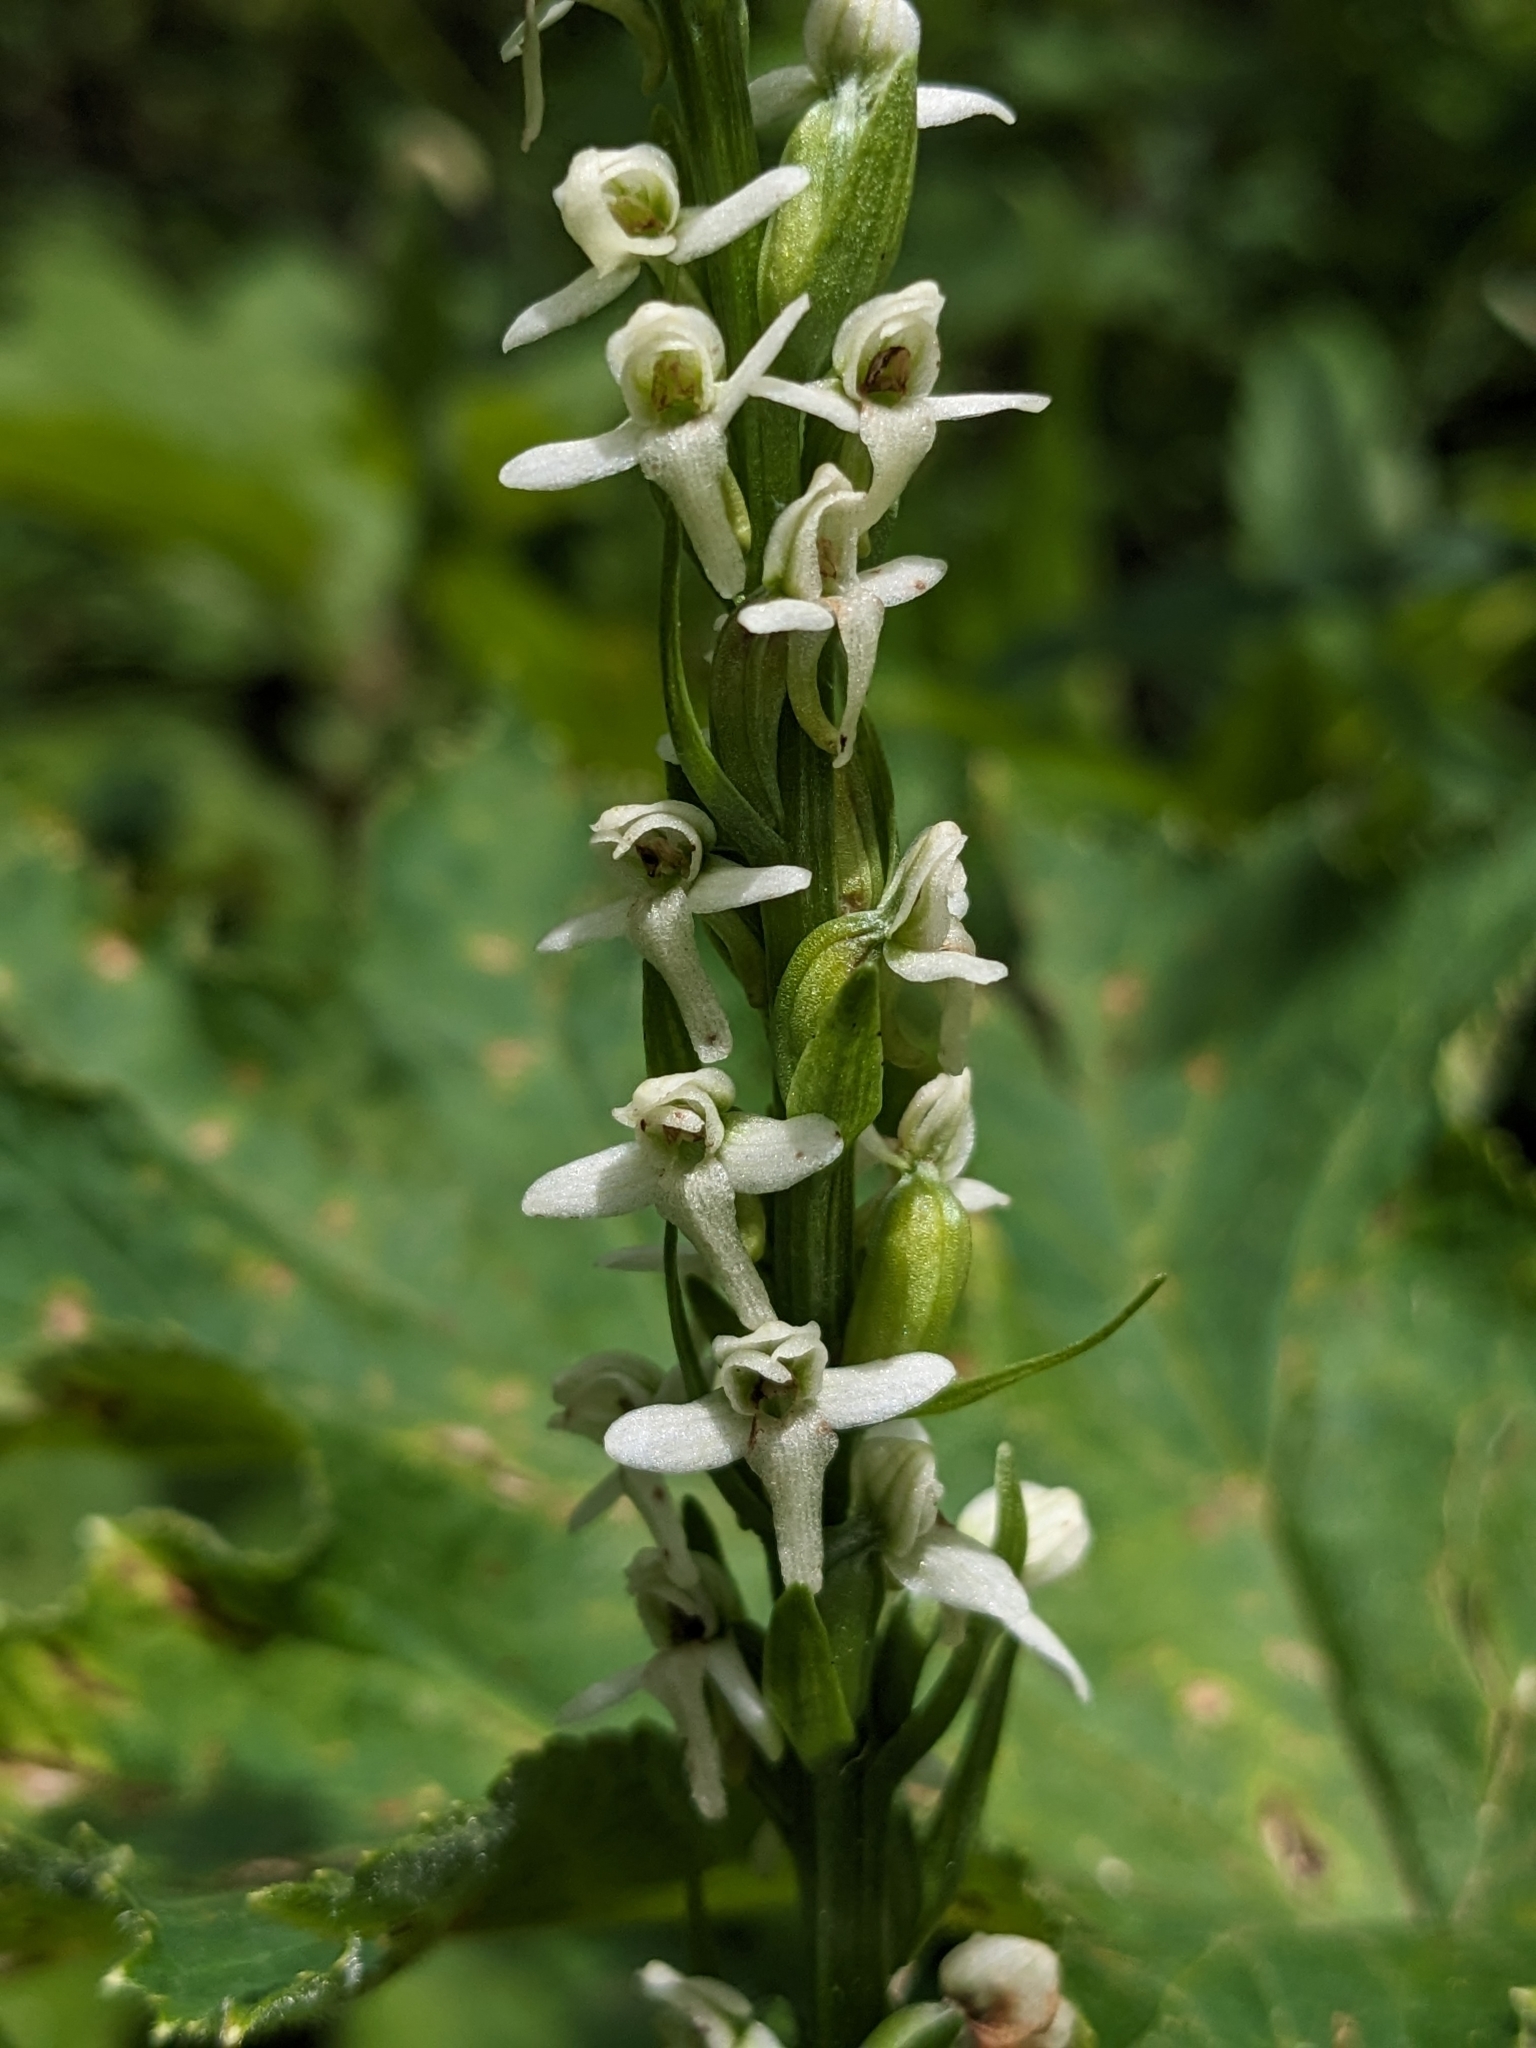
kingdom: Plantae
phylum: Tracheophyta
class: Liliopsida
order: Asparagales
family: Orchidaceae
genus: Platanthera
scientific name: Platanthera dilatata
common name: Bog candles
